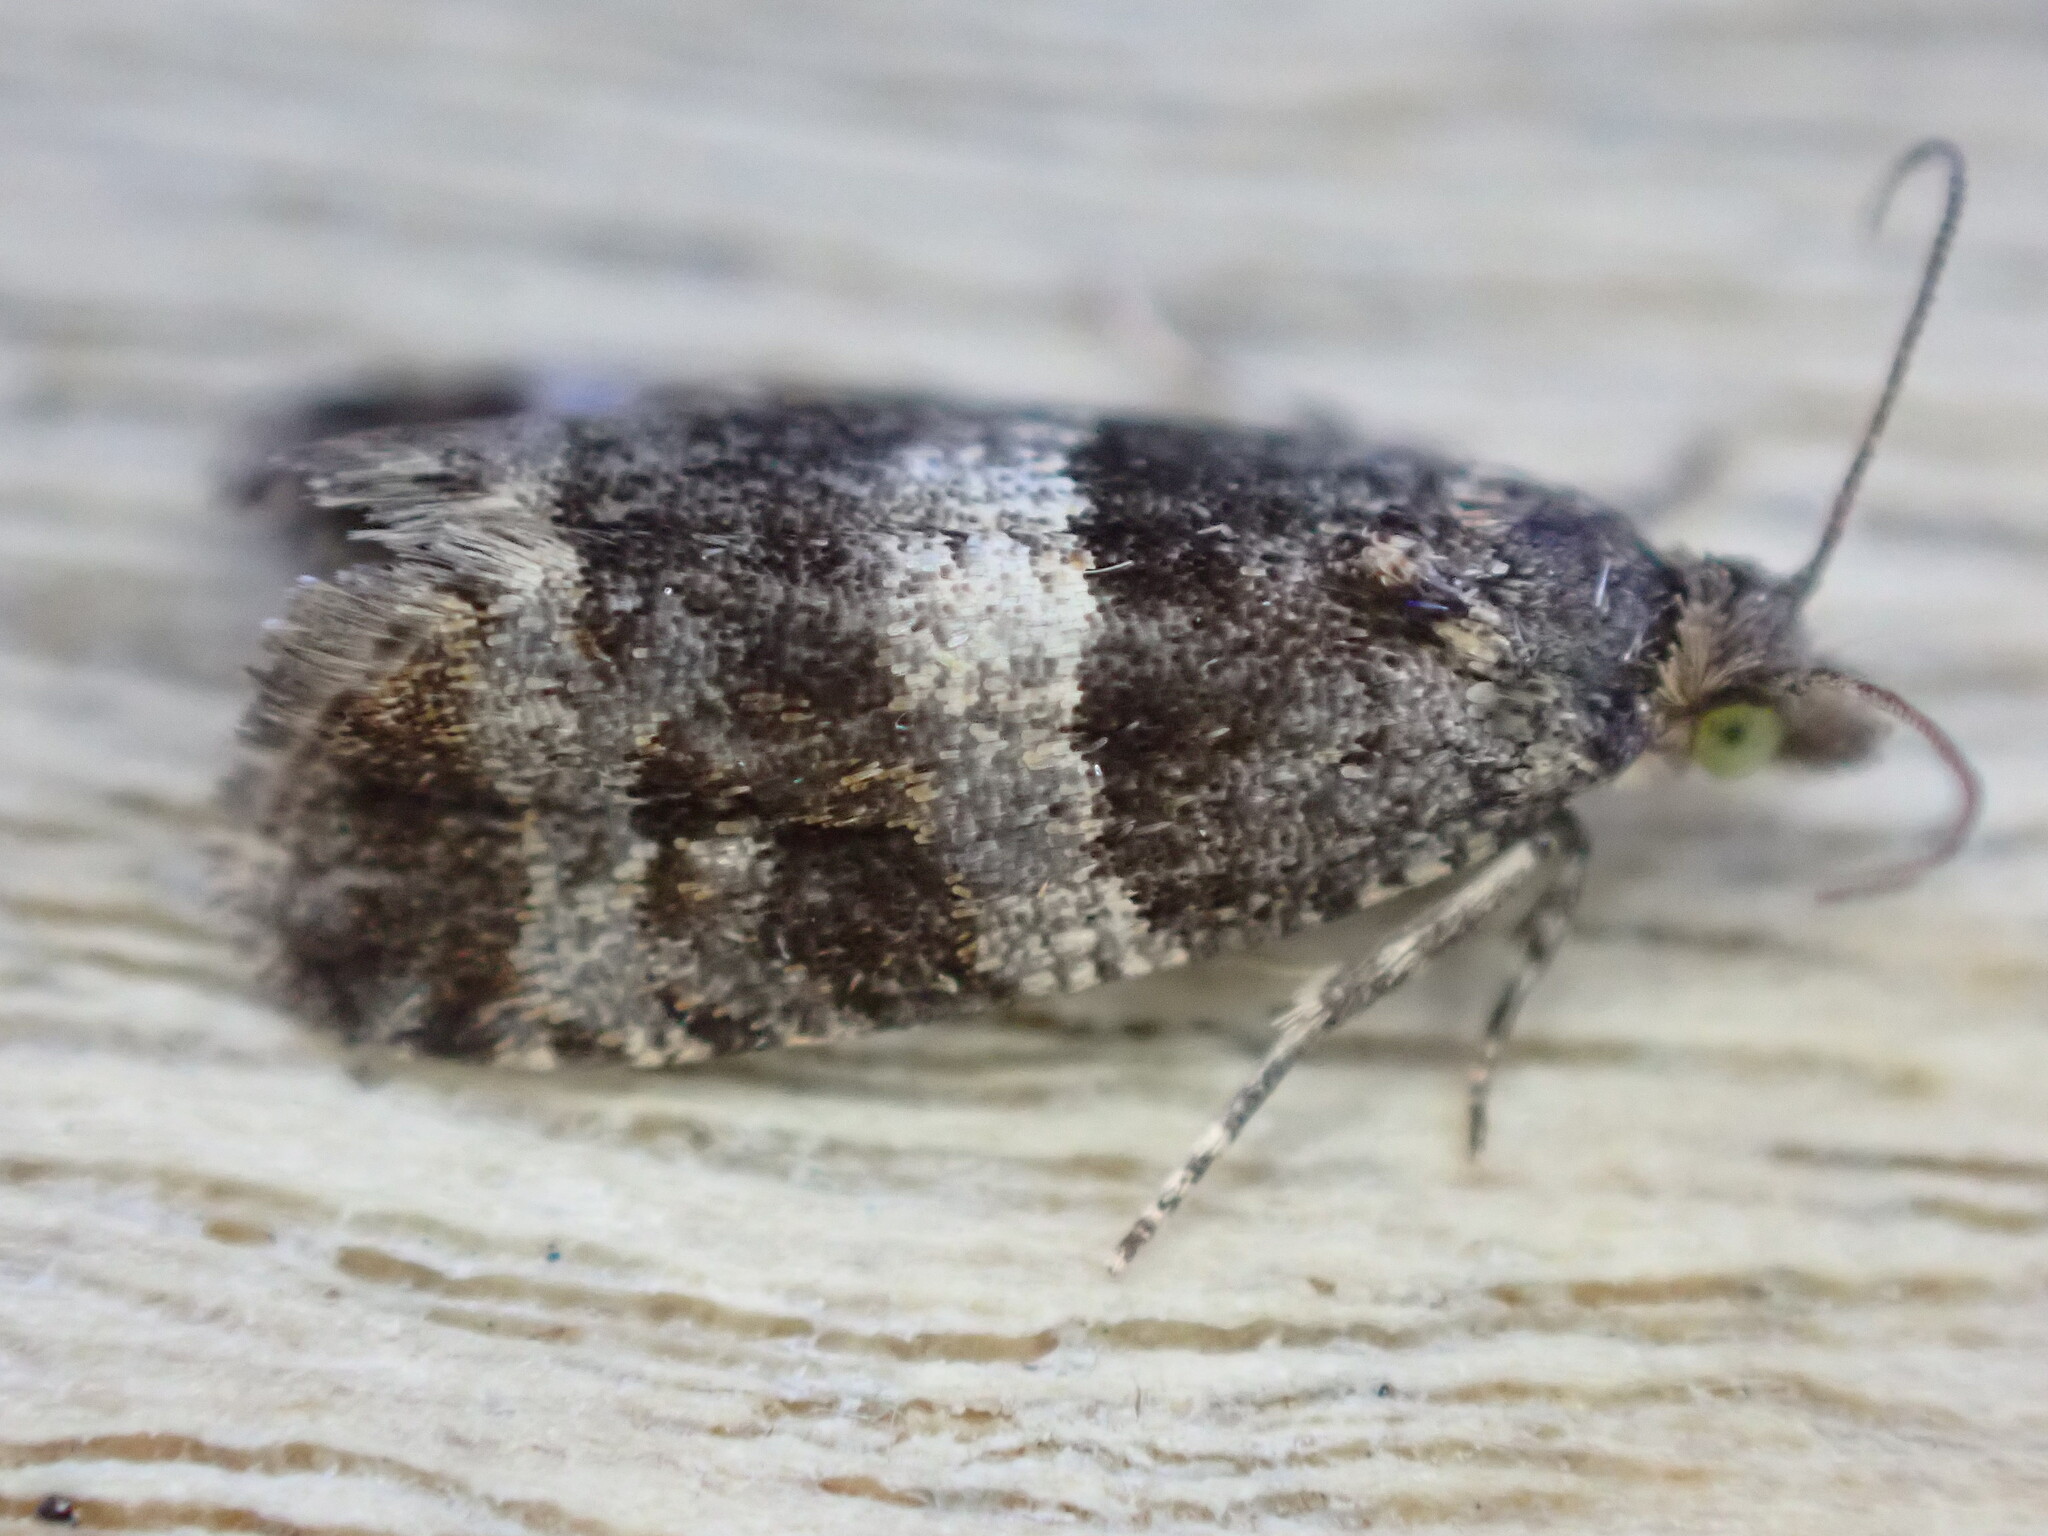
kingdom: Animalia
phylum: Arthropoda
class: Insecta
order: Lepidoptera
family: Tortricidae
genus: Lobesia
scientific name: Lobesia fuligana
